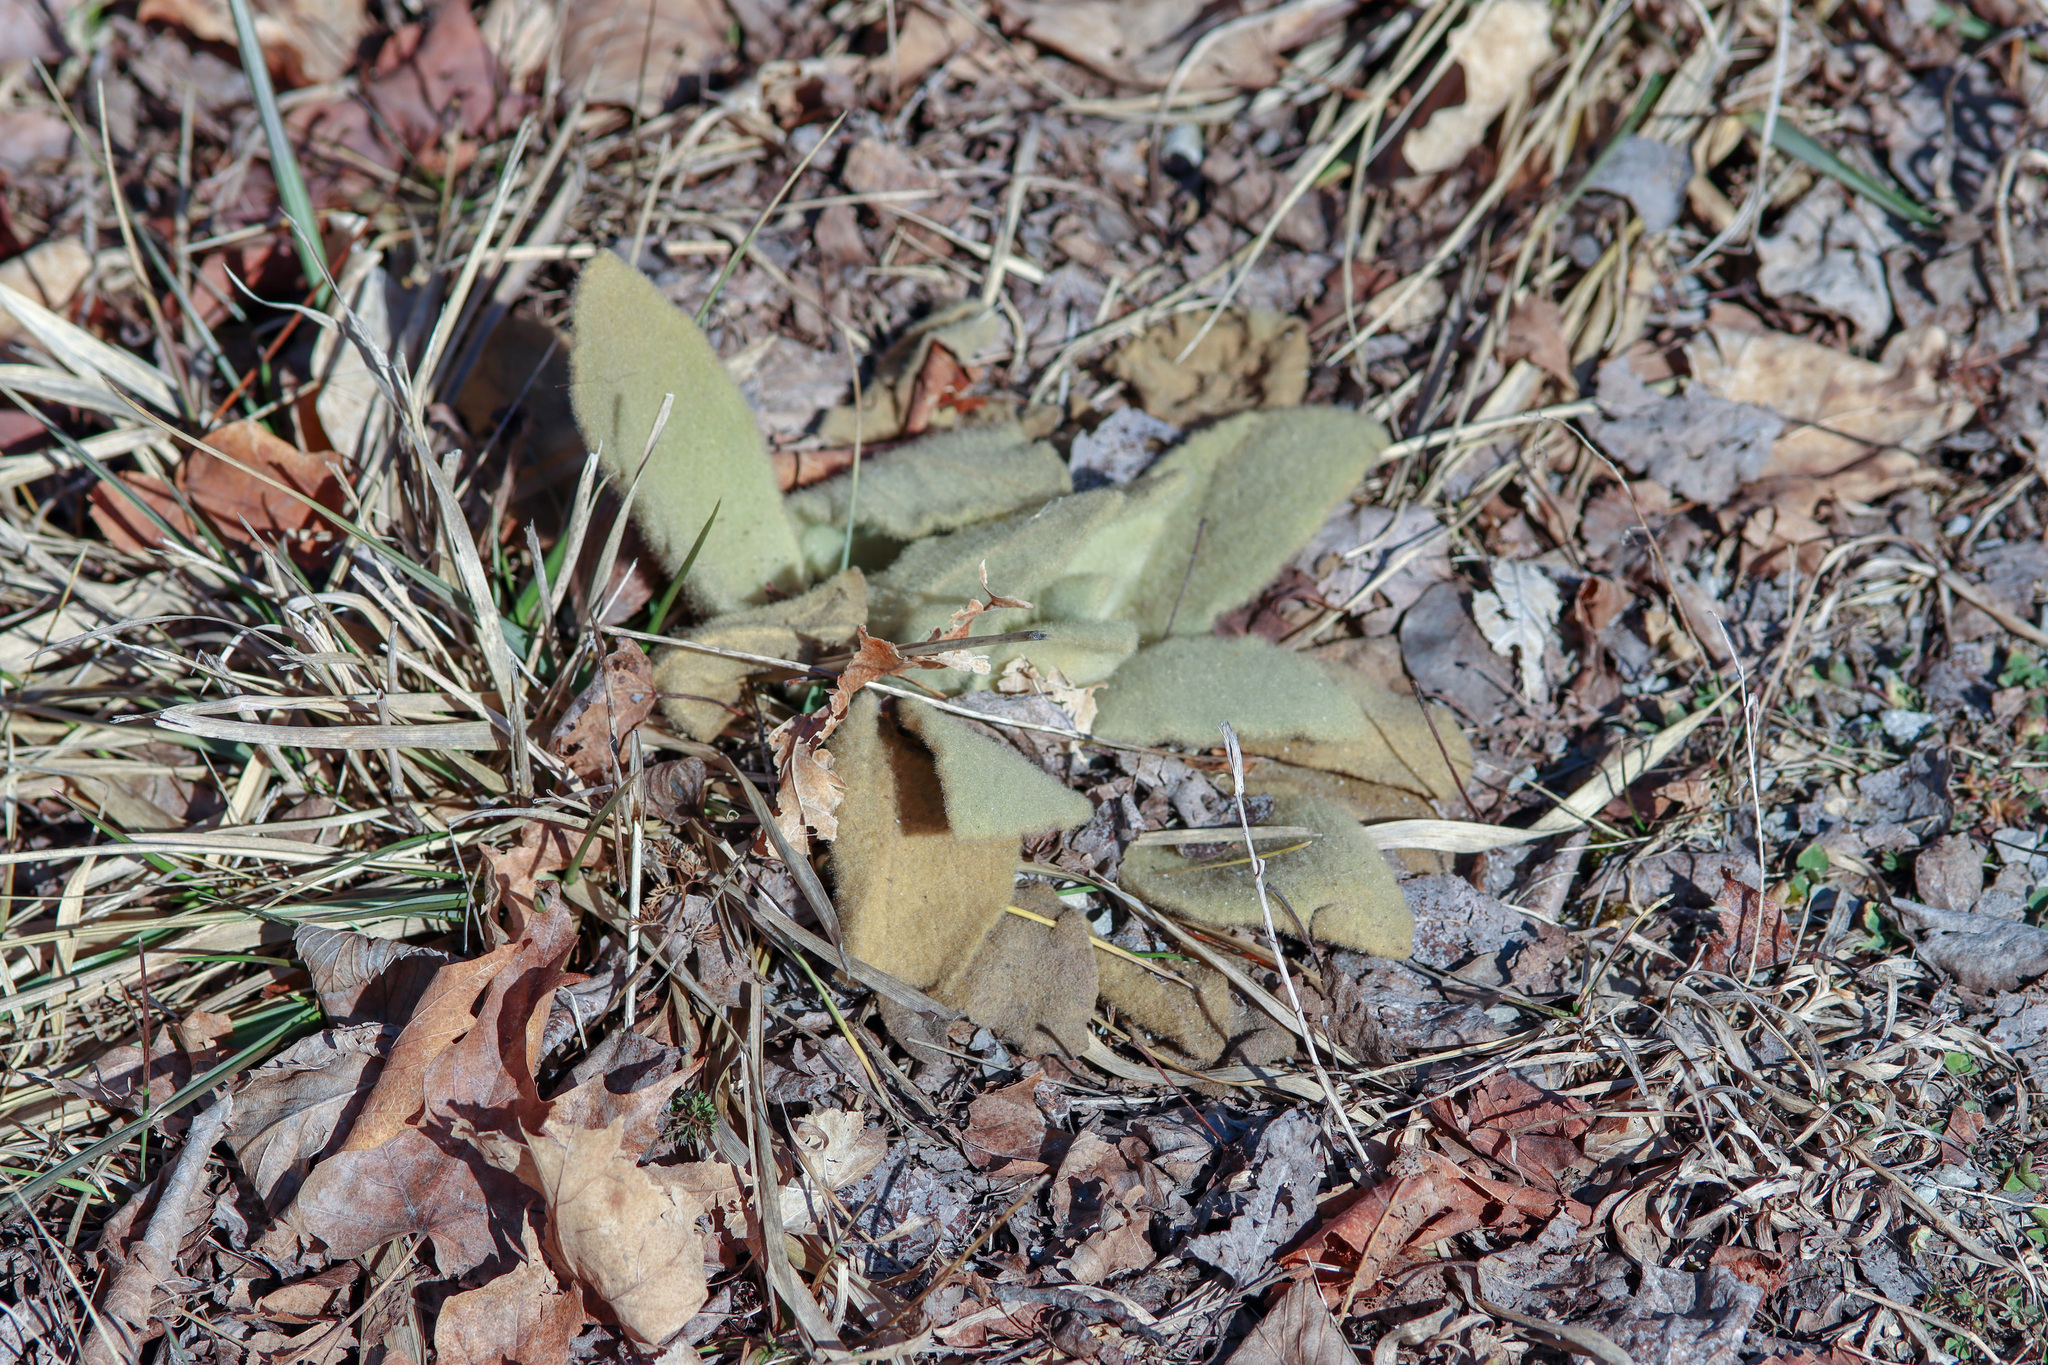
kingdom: Plantae
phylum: Tracheophyta
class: Magnoliopsida
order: Lamiales
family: Scrophulariaceae
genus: Verbascum
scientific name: Verbascum thapsus
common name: Common mullein
